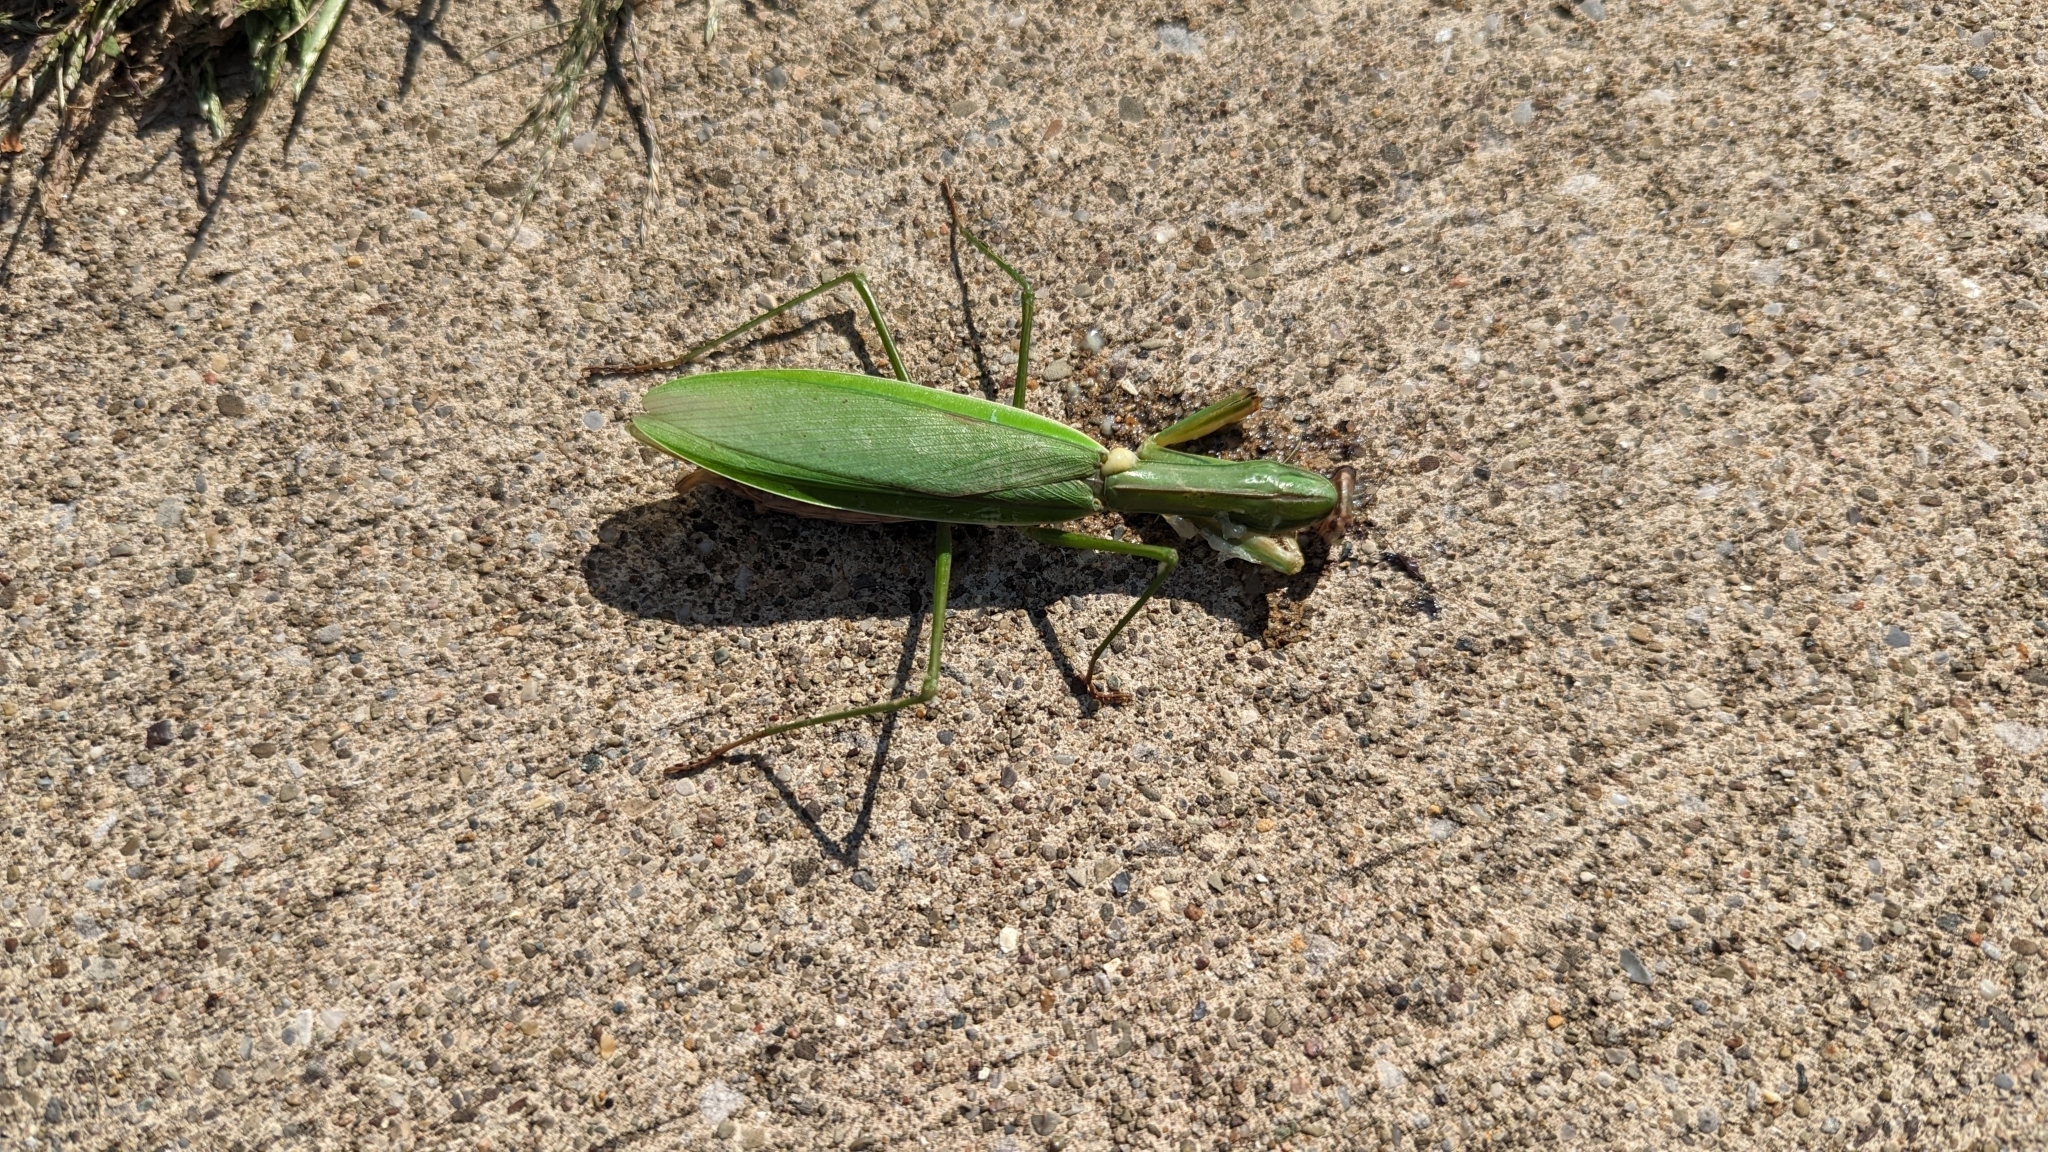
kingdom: Animalia
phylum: Arthropoda
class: Insecta
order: Mantodea
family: Mantidae
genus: Mantis
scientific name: Mantis religiosa
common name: Praying mantis
